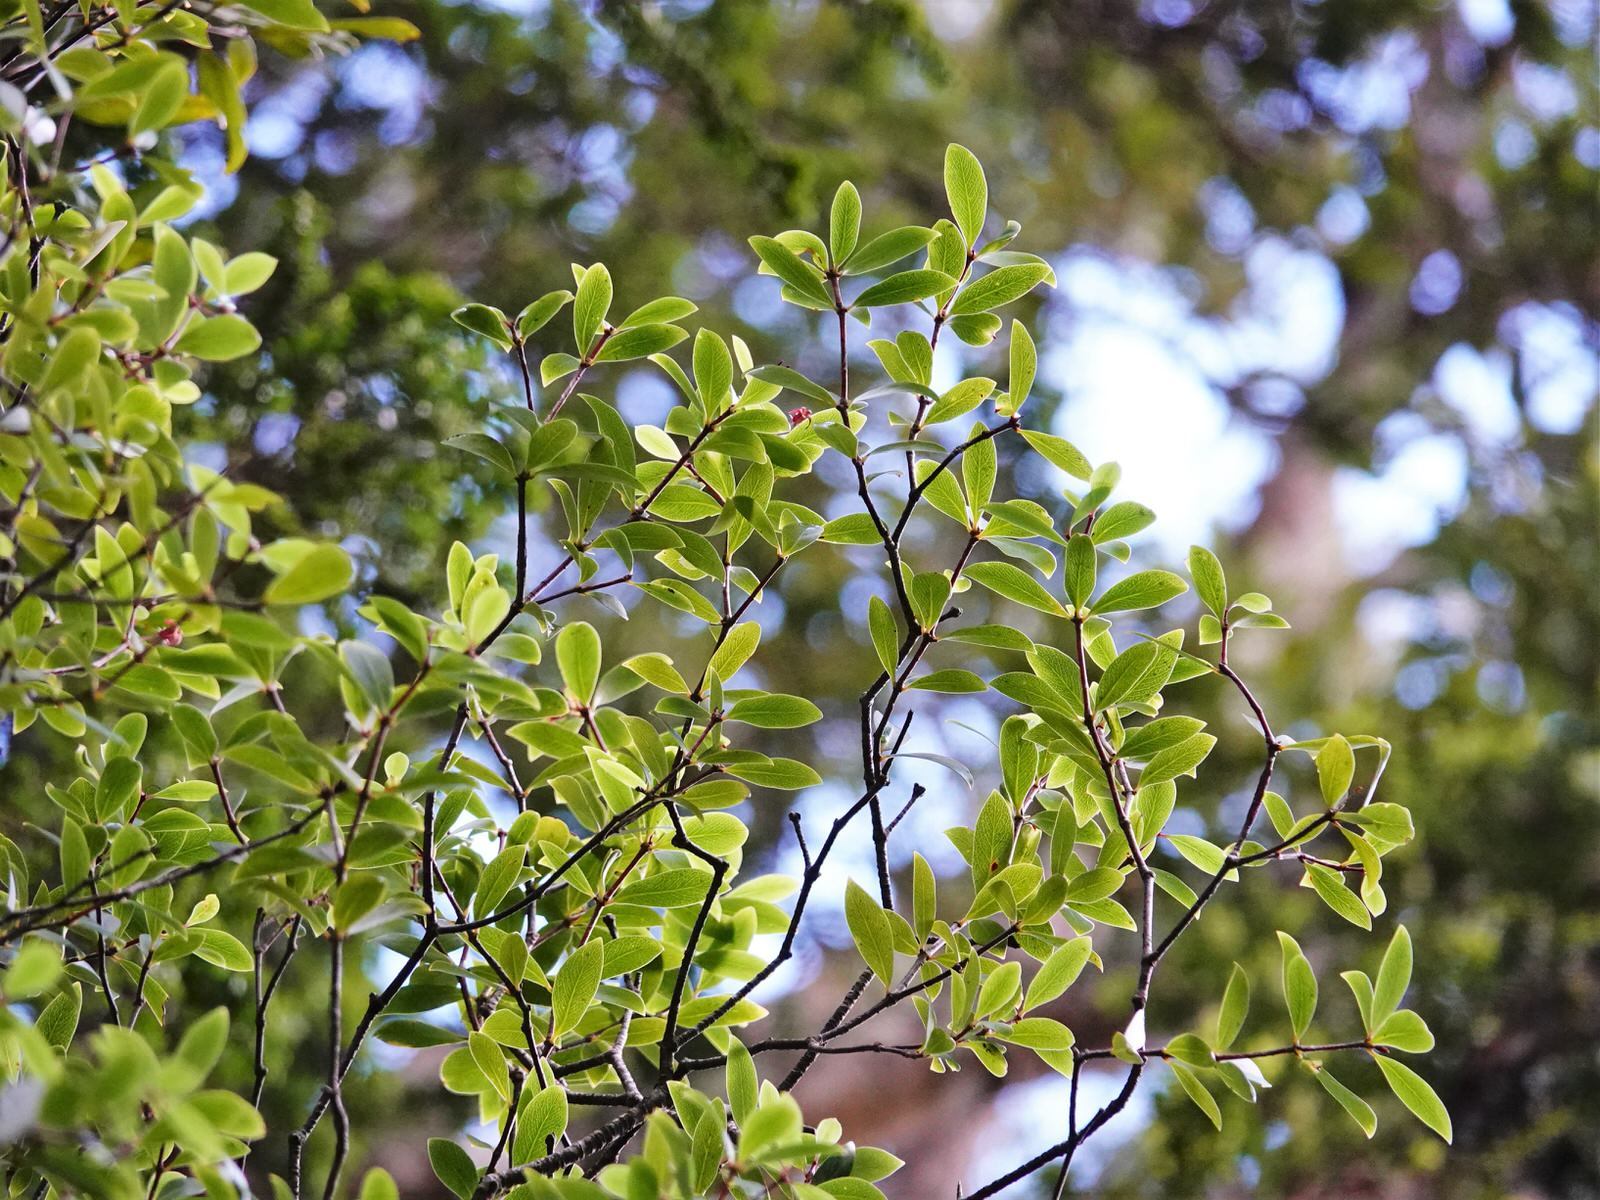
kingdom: Plantae
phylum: Tracheophyta
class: Magnoliopsida
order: Apiales
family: Pittosporaceae
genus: Pittosporum
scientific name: Pittosporum cornifolium
